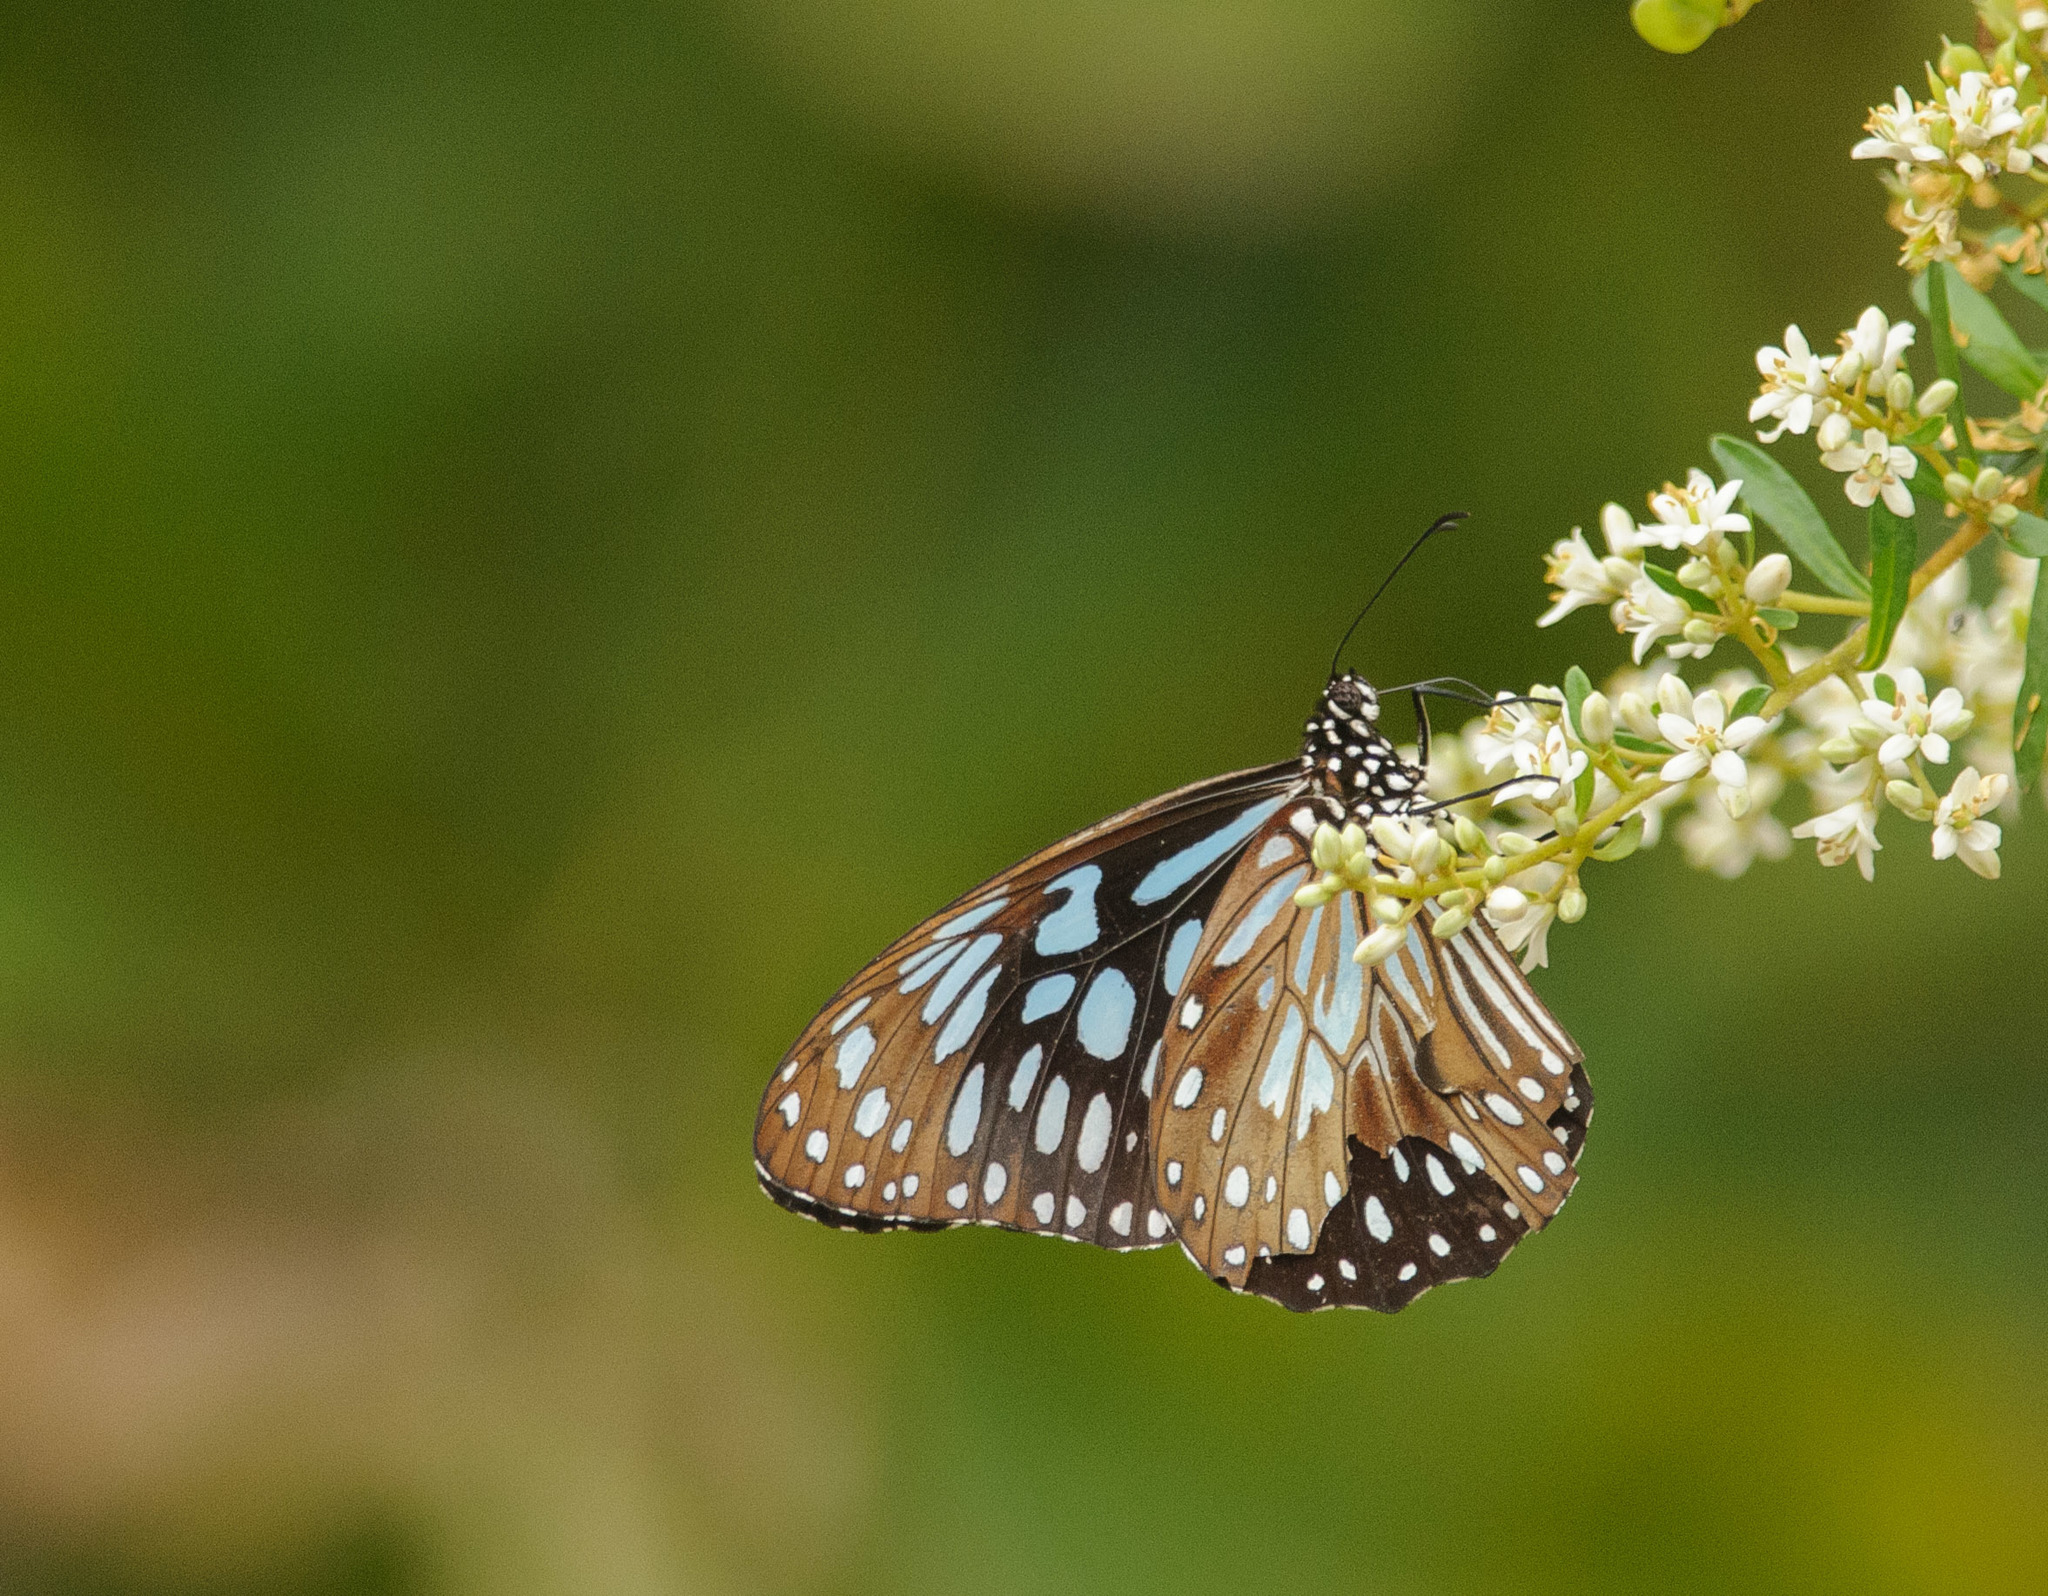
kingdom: Animalia
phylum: Arthropoda
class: Insecta
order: Lepidoptera
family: Nymphalidae
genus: Tirumala
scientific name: Tirumala hamata
